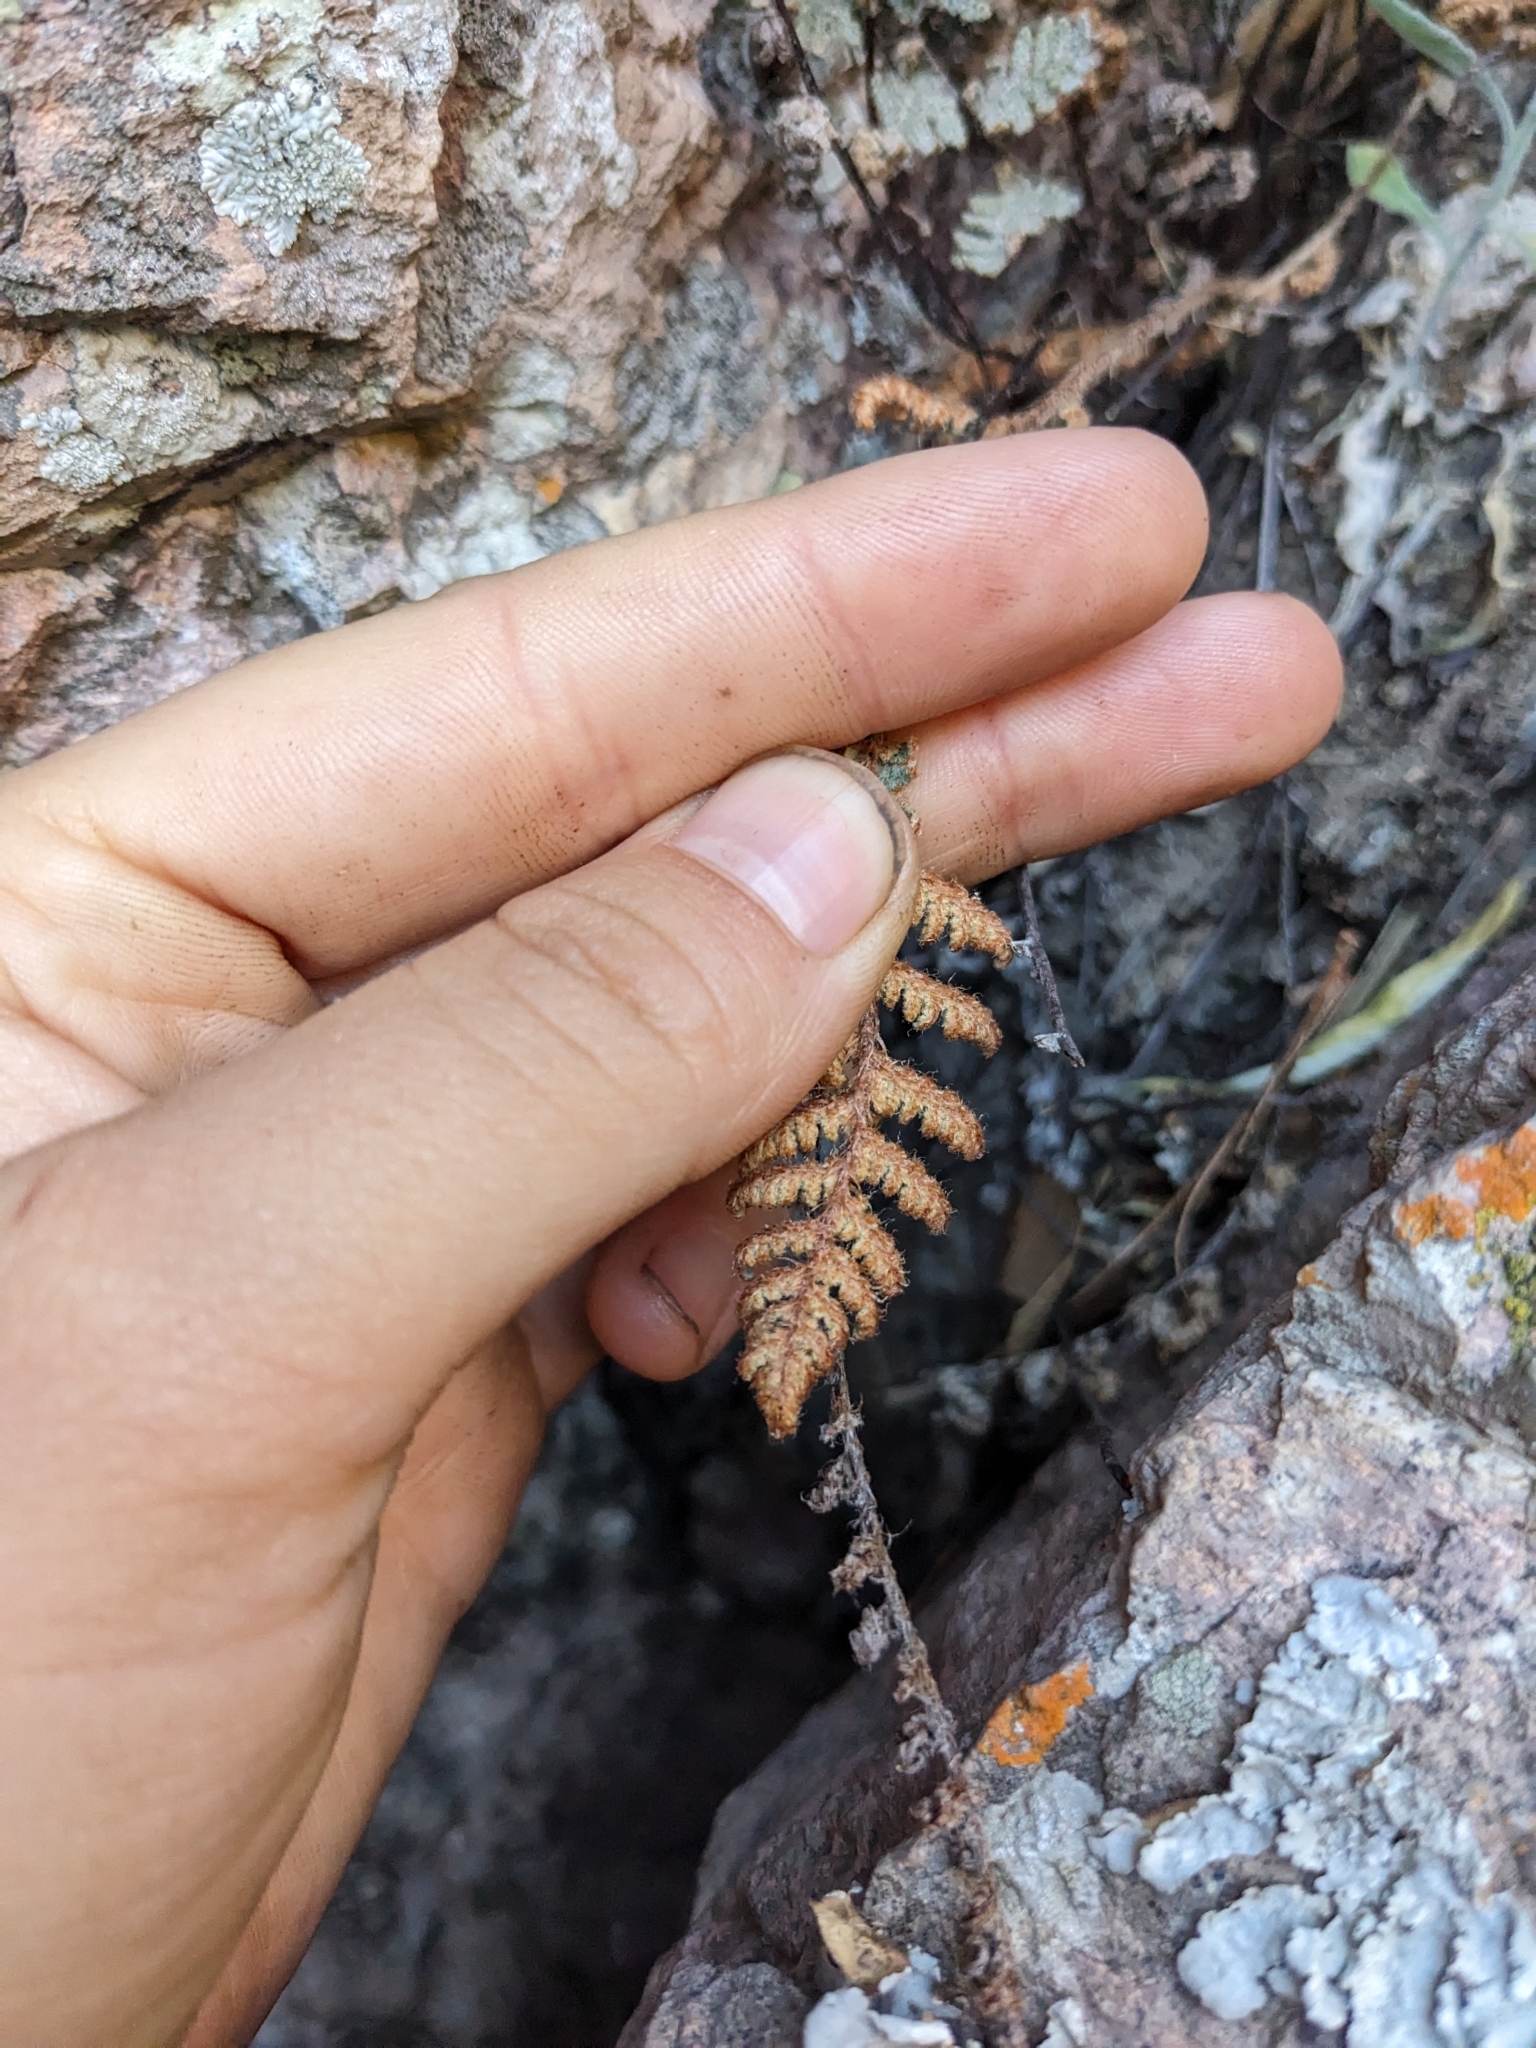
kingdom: Plantae
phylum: Tracheophyta
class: Polypodiopsida
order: Polypodiales
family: Pteridaceae
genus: Myriopteris
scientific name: Myriopteris lindheimeri
